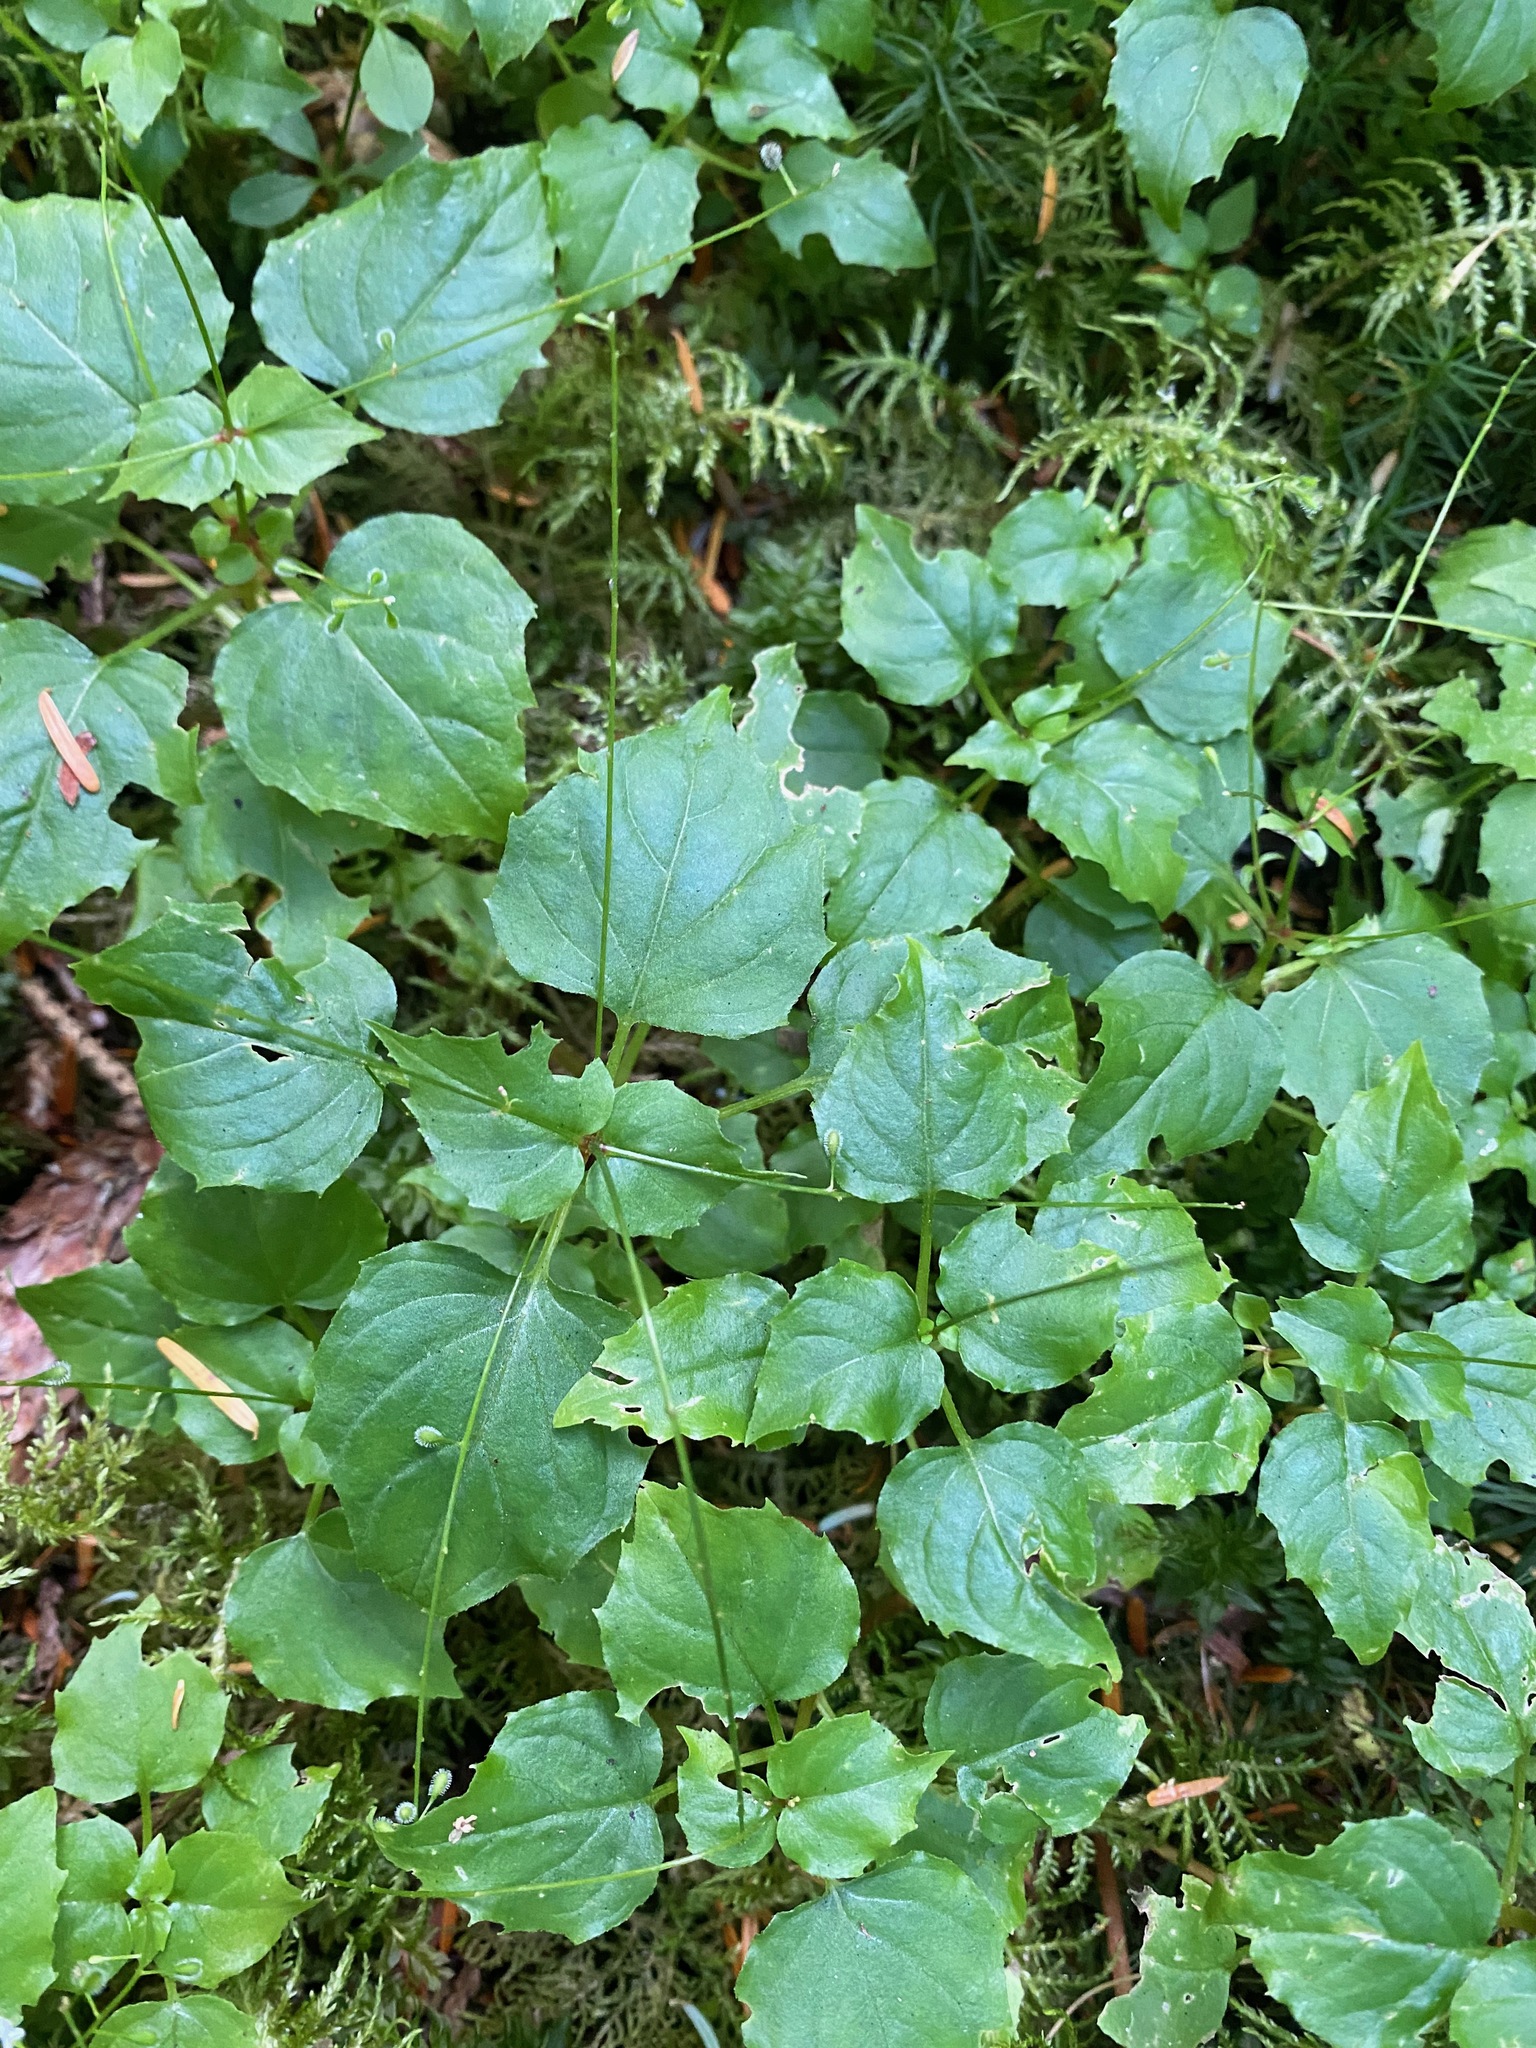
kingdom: Plantae
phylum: Tracheophyta
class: Magnoliopsida
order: Myrtales
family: Onagraceae
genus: Circaea
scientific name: Circaea alpina
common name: Alpine enchanter's-nightshade
